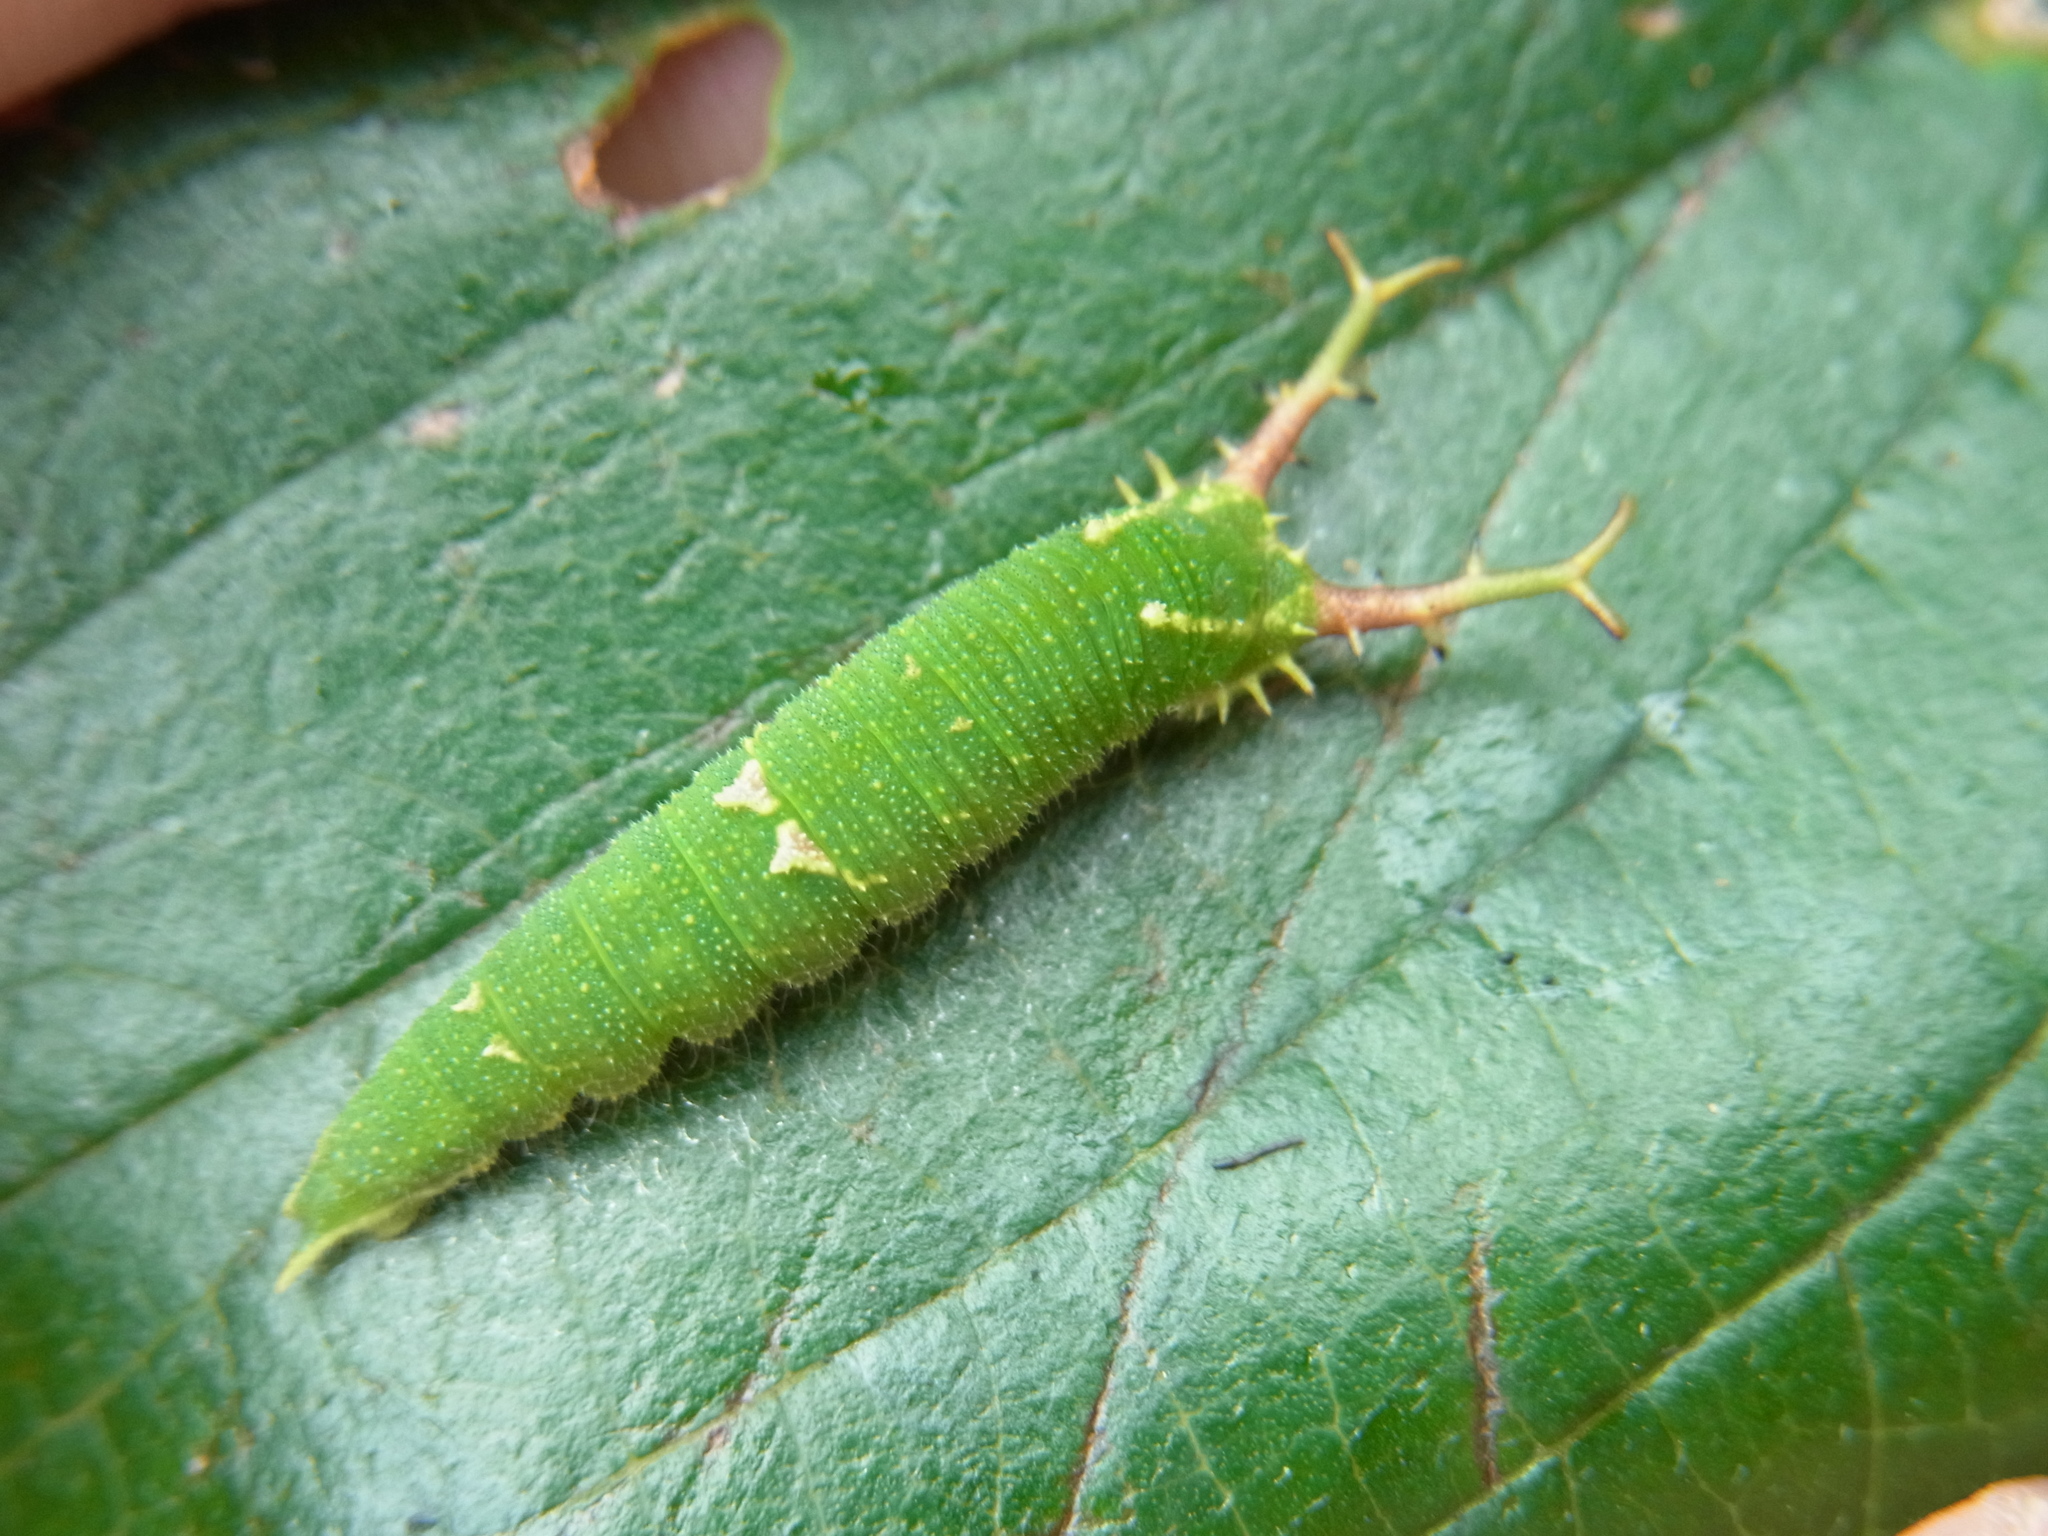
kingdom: Animalia
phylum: Arthropoda
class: Insecta
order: Lepidoptera
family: Nymphalidae
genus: Hestina
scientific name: Hestina persimilis
